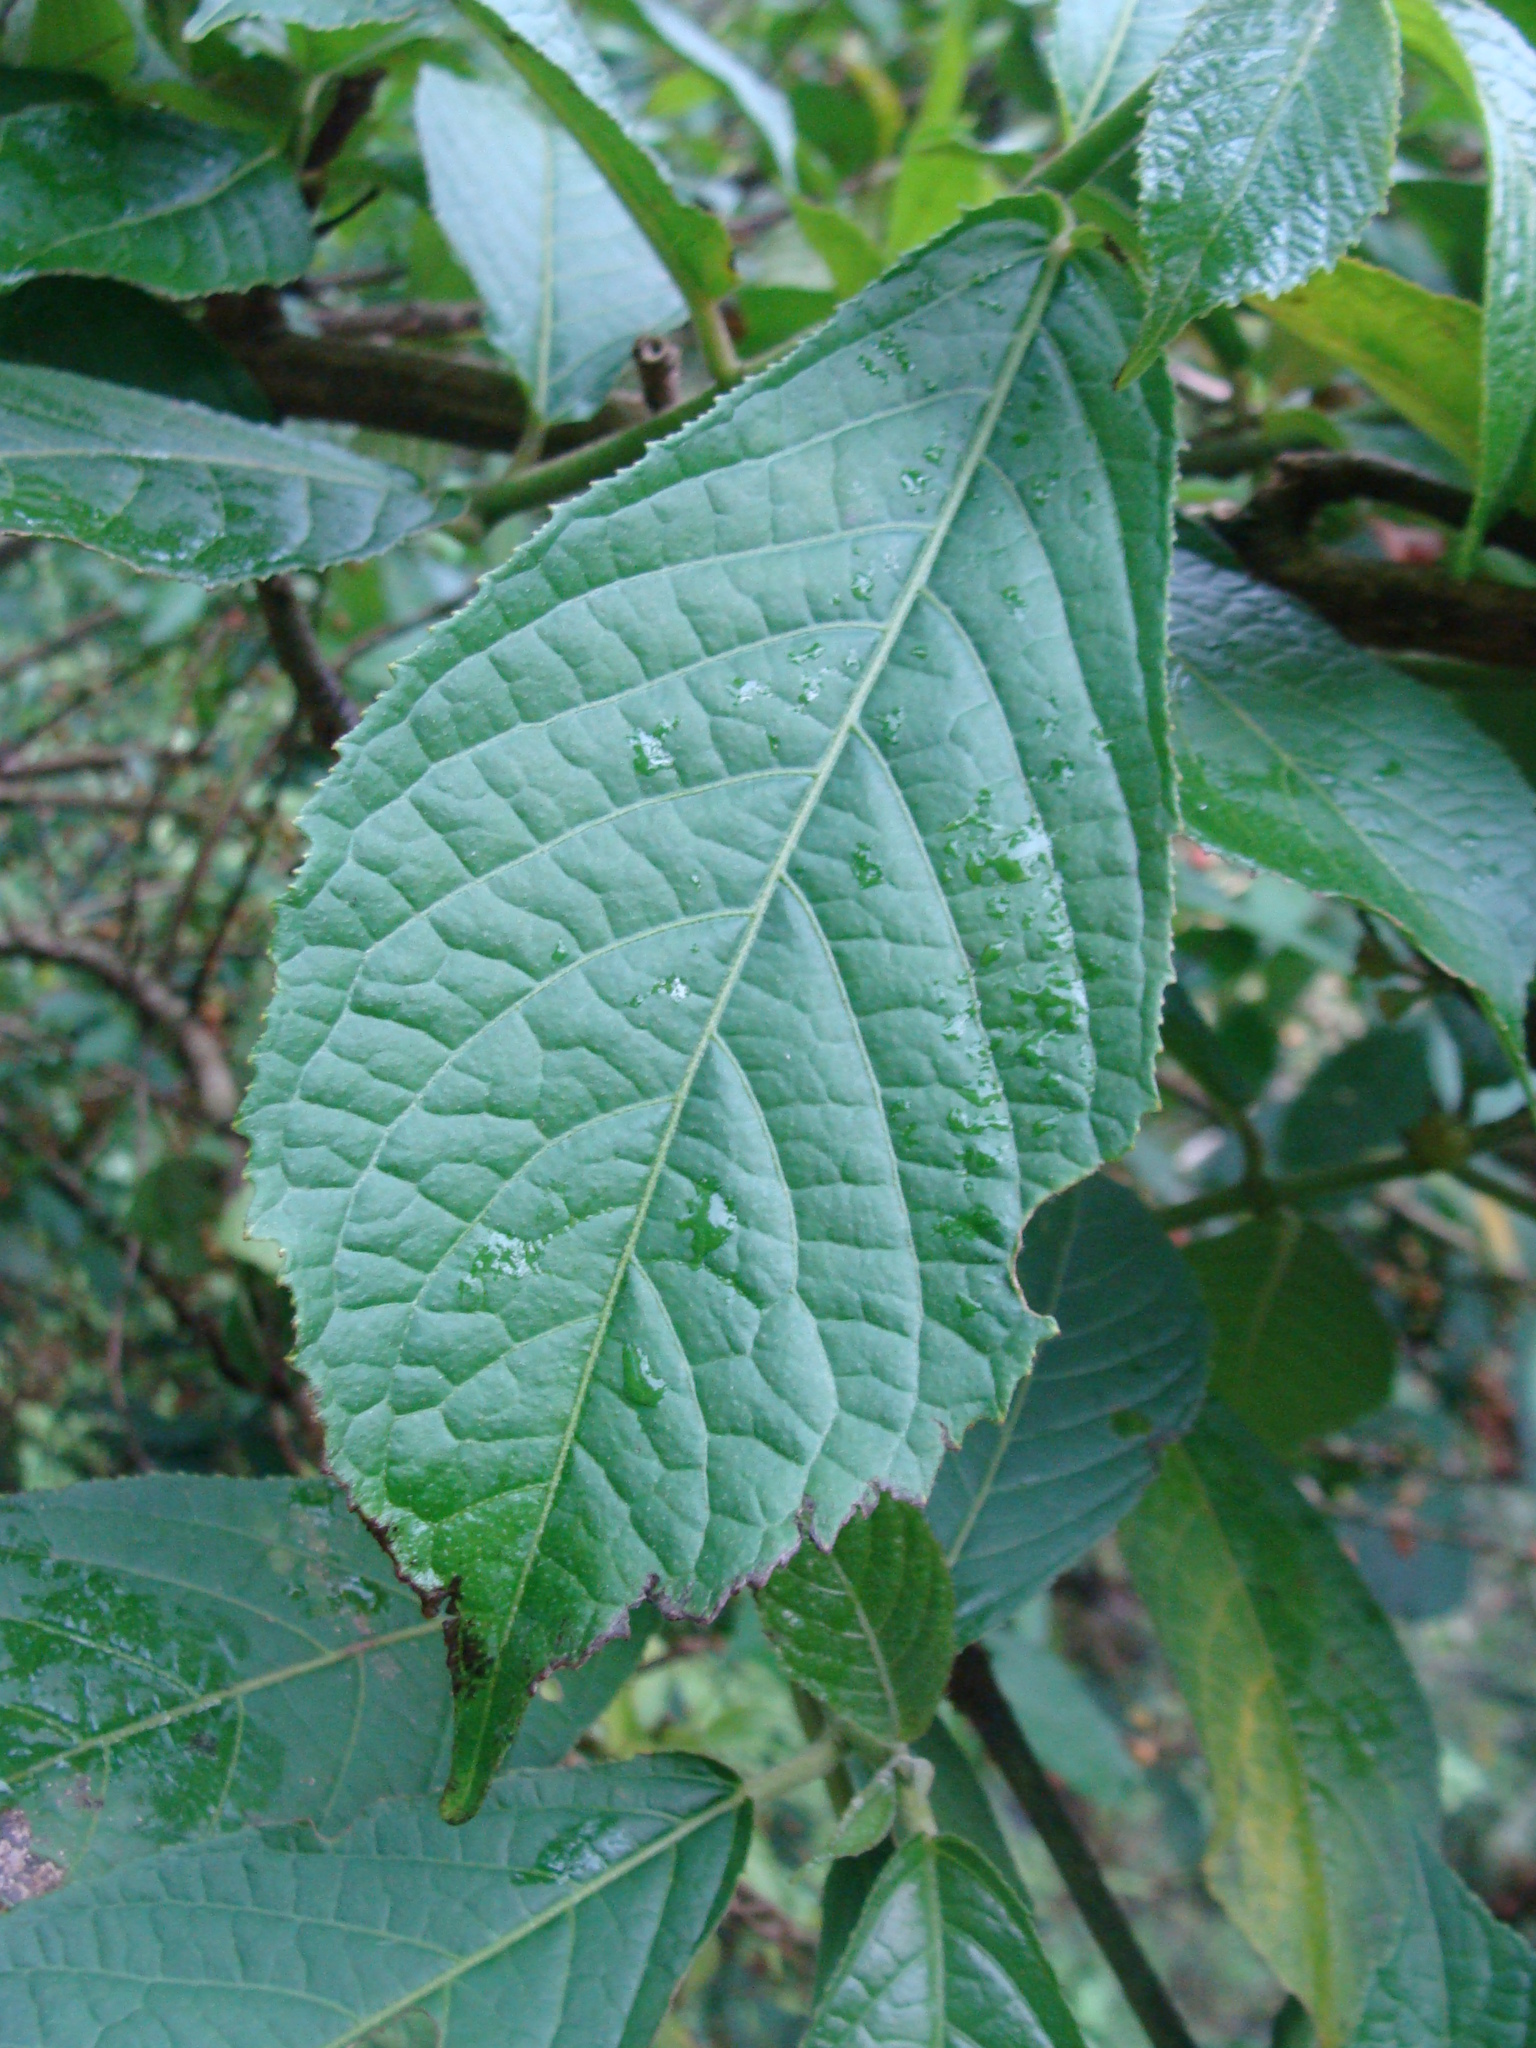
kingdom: Plantae
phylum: Tracheophyta
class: Magnoliopsida
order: Laurales
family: Siparunaceae
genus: Siparuna
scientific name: Siparuna thecaphora
